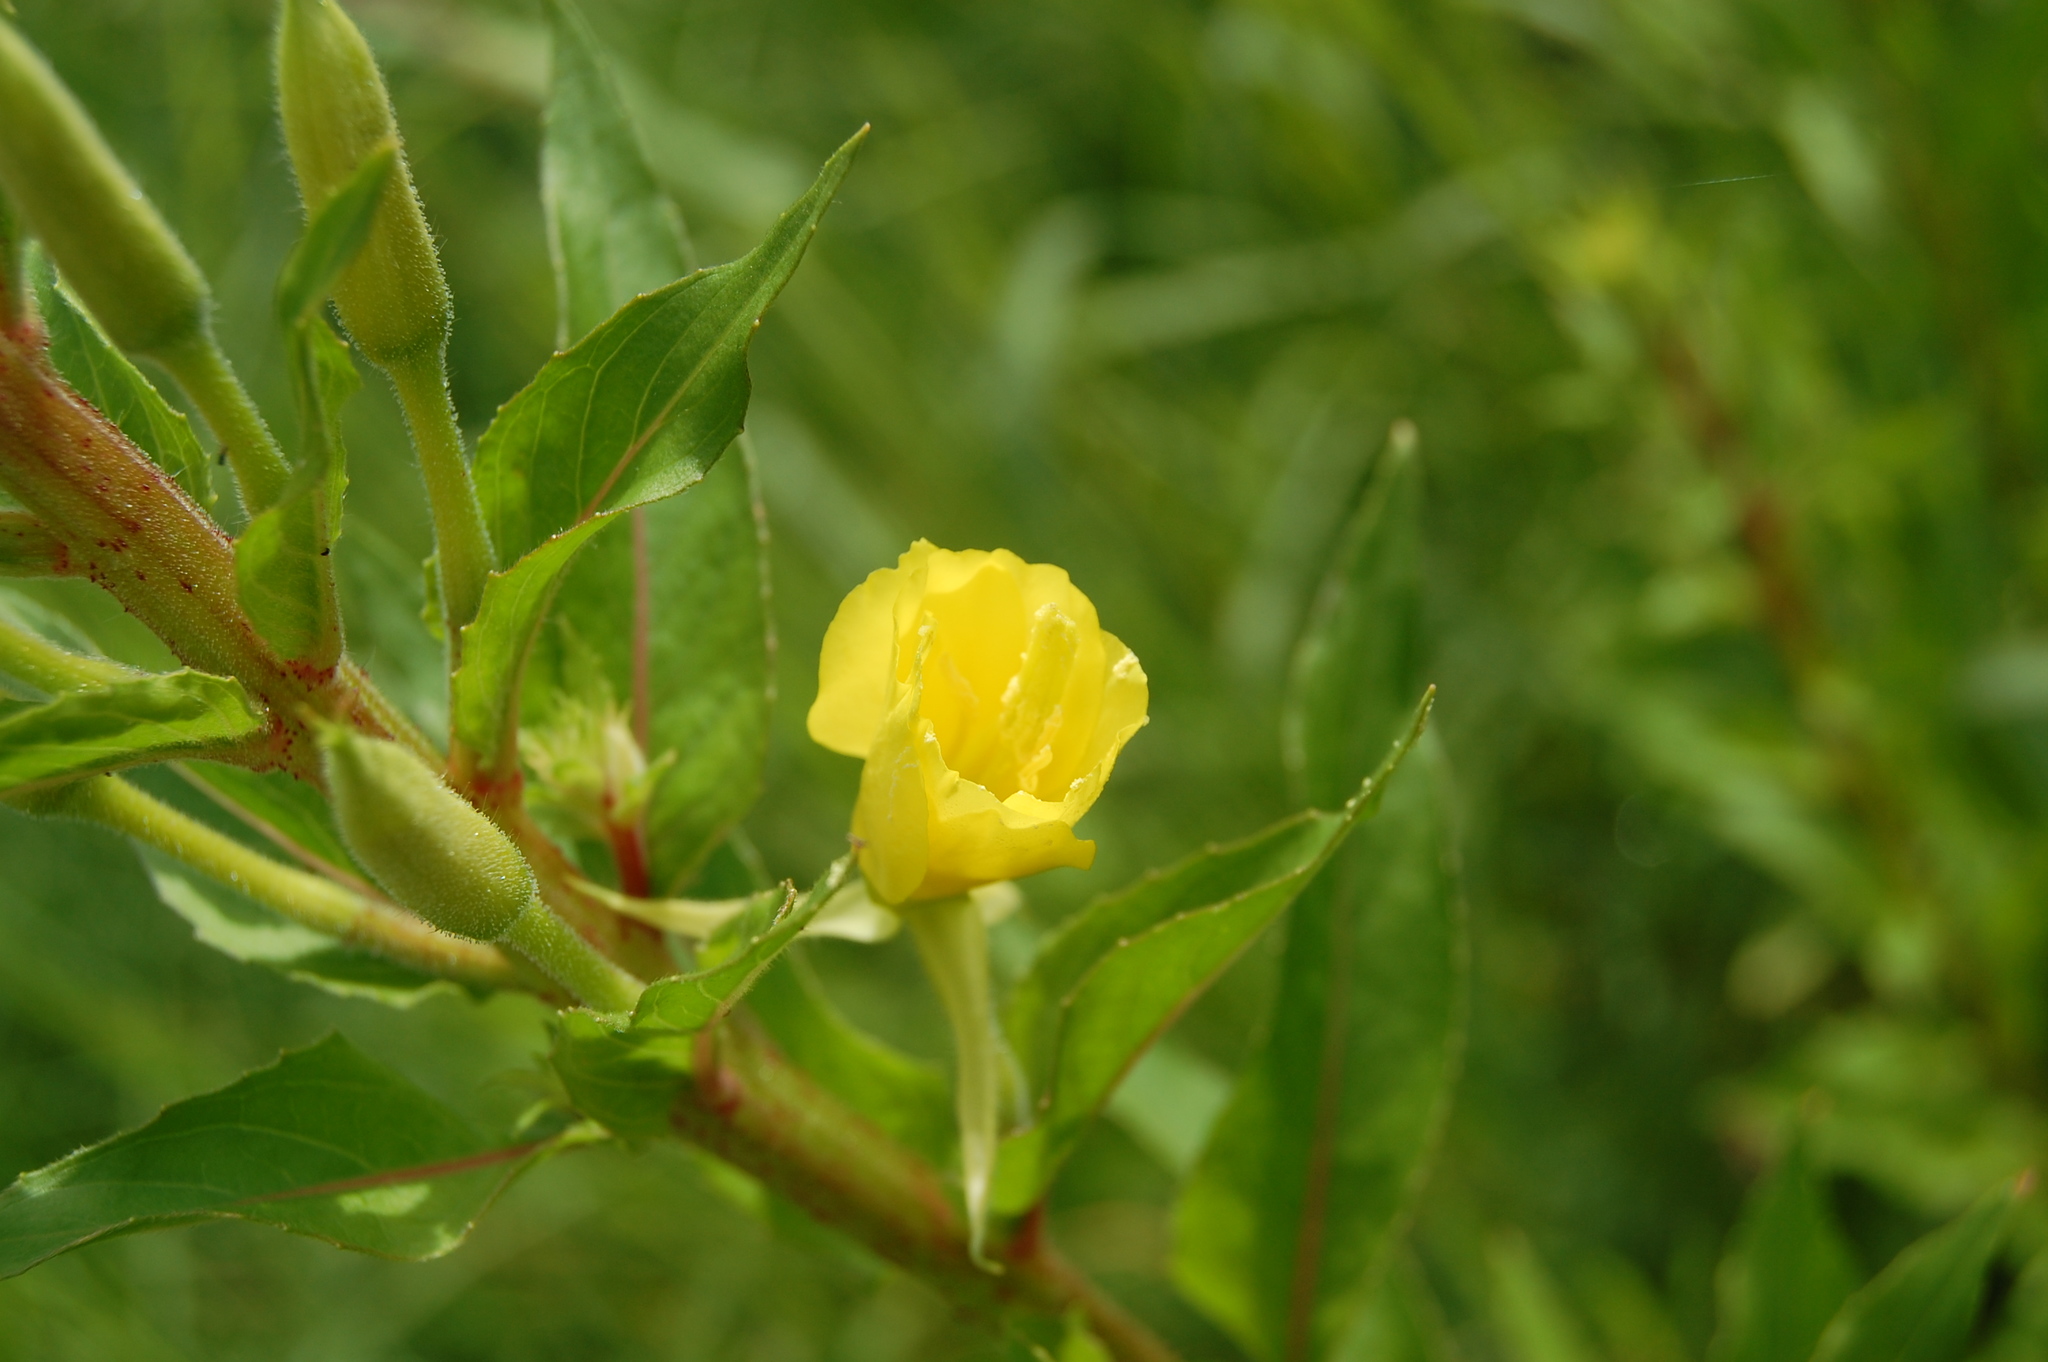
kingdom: Plantae
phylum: Tracheophyta
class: Magnoliopsida
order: Myrtales
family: Onagraceae
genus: Oenothera
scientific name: Oenothera rubricaulis
